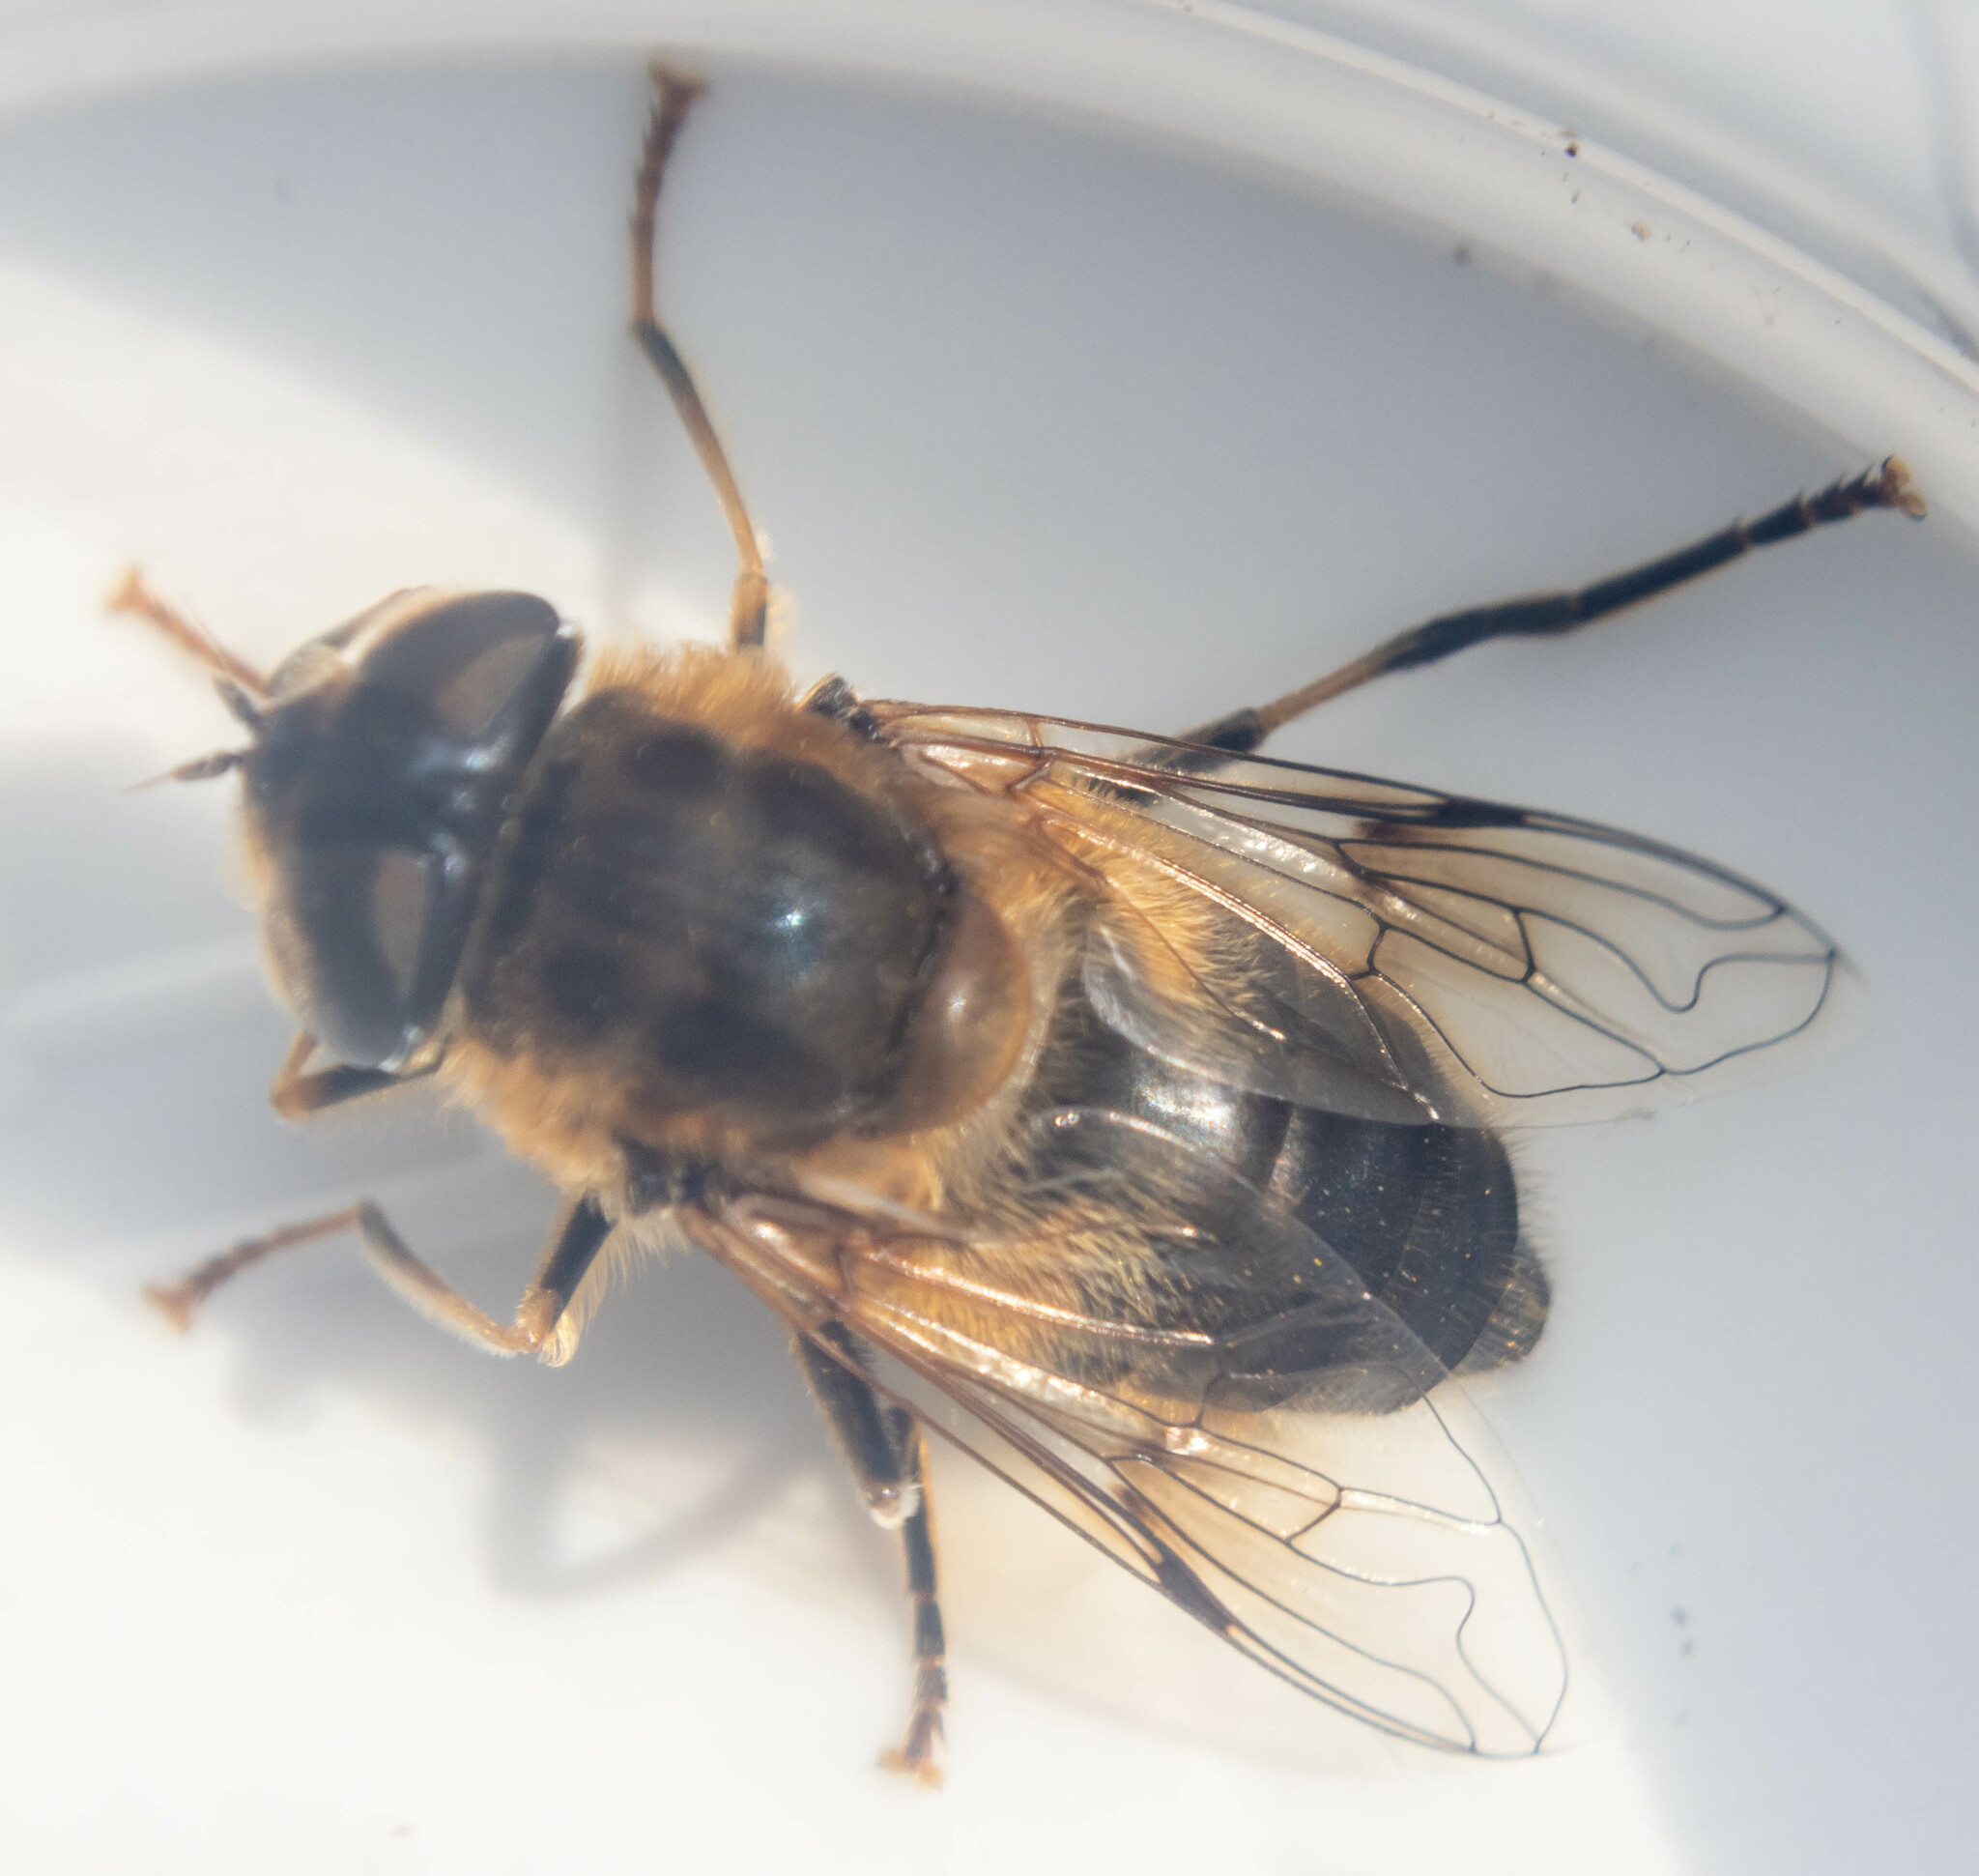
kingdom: Animalia
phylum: Arthropoda
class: Insecta
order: Diptera
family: Syrphidae
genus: Eristalis
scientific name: Eristalis pertinax
